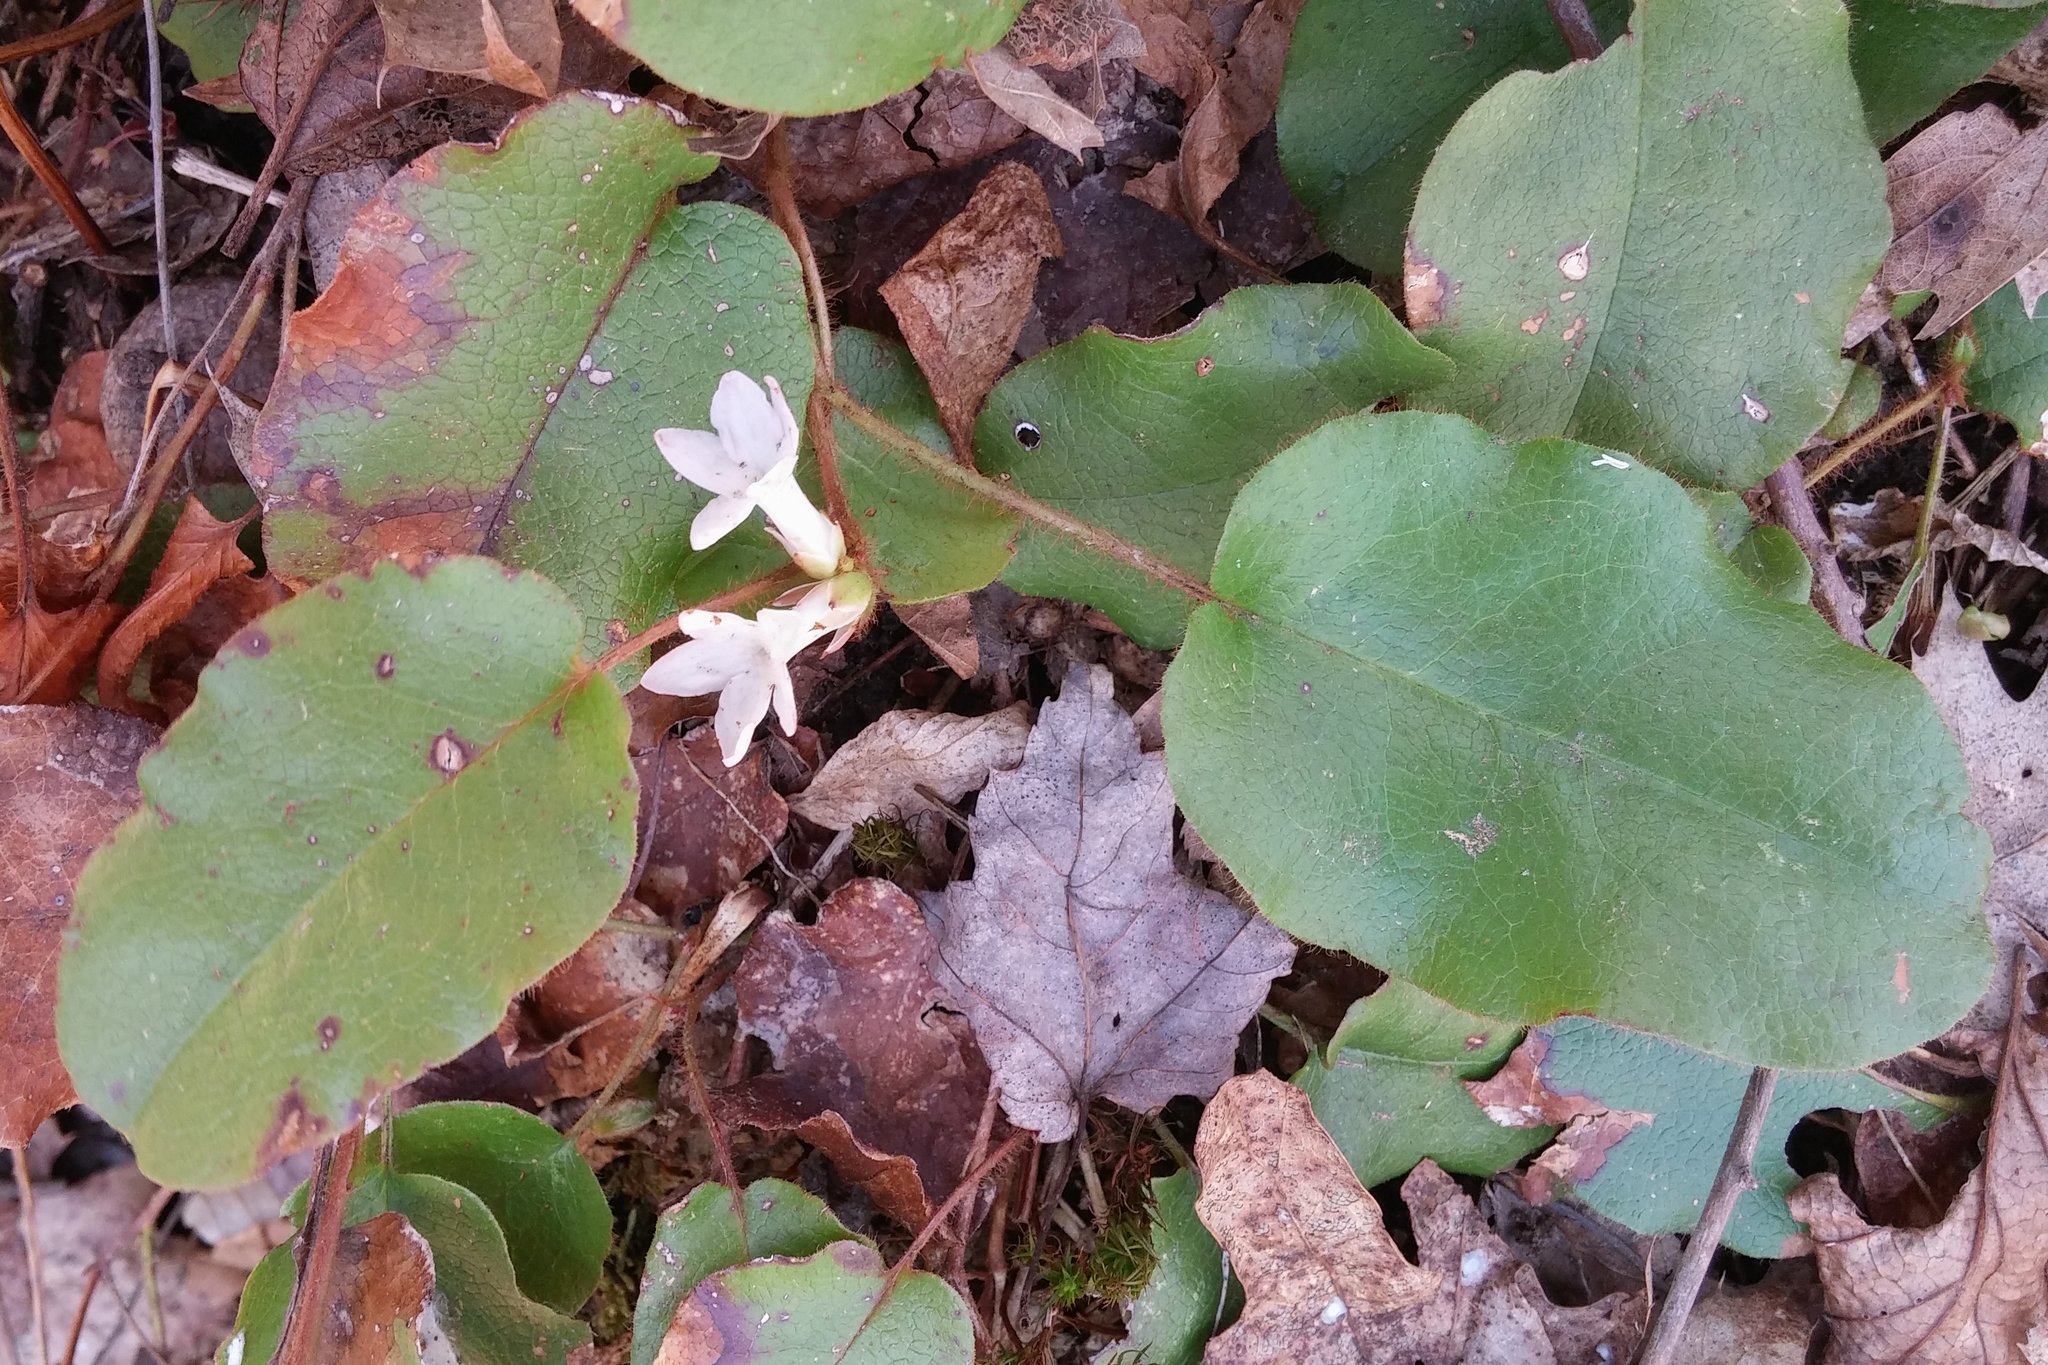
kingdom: Plantae
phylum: Tracheophyta
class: Magnoliopsida
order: Ericales
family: Ericaceae
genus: Epigaea
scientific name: Epigaea repens
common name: Gravelroot
